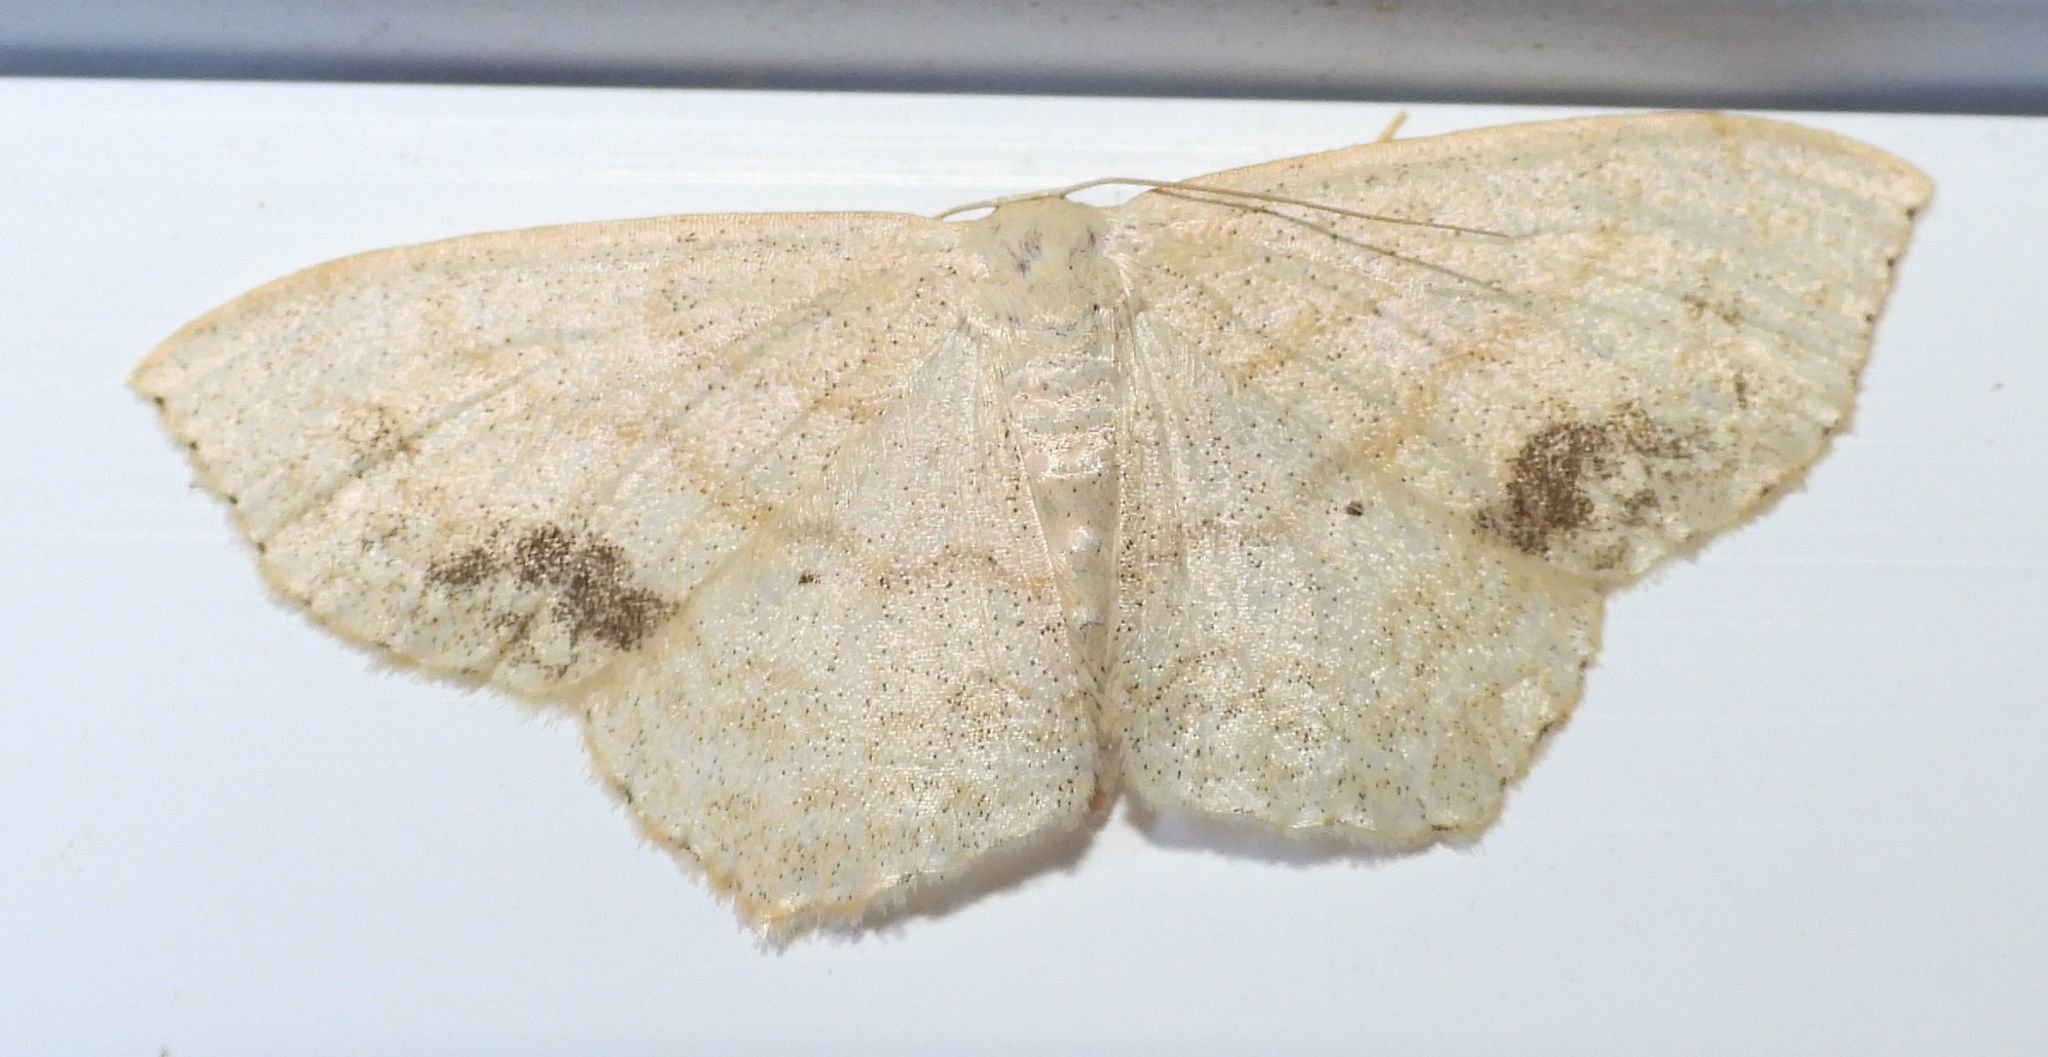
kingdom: Animalia
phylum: Arthropoda
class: Insecta
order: Lepidoptera
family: Geometridae
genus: Scopula
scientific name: Scopula limboundata
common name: Large lace border
